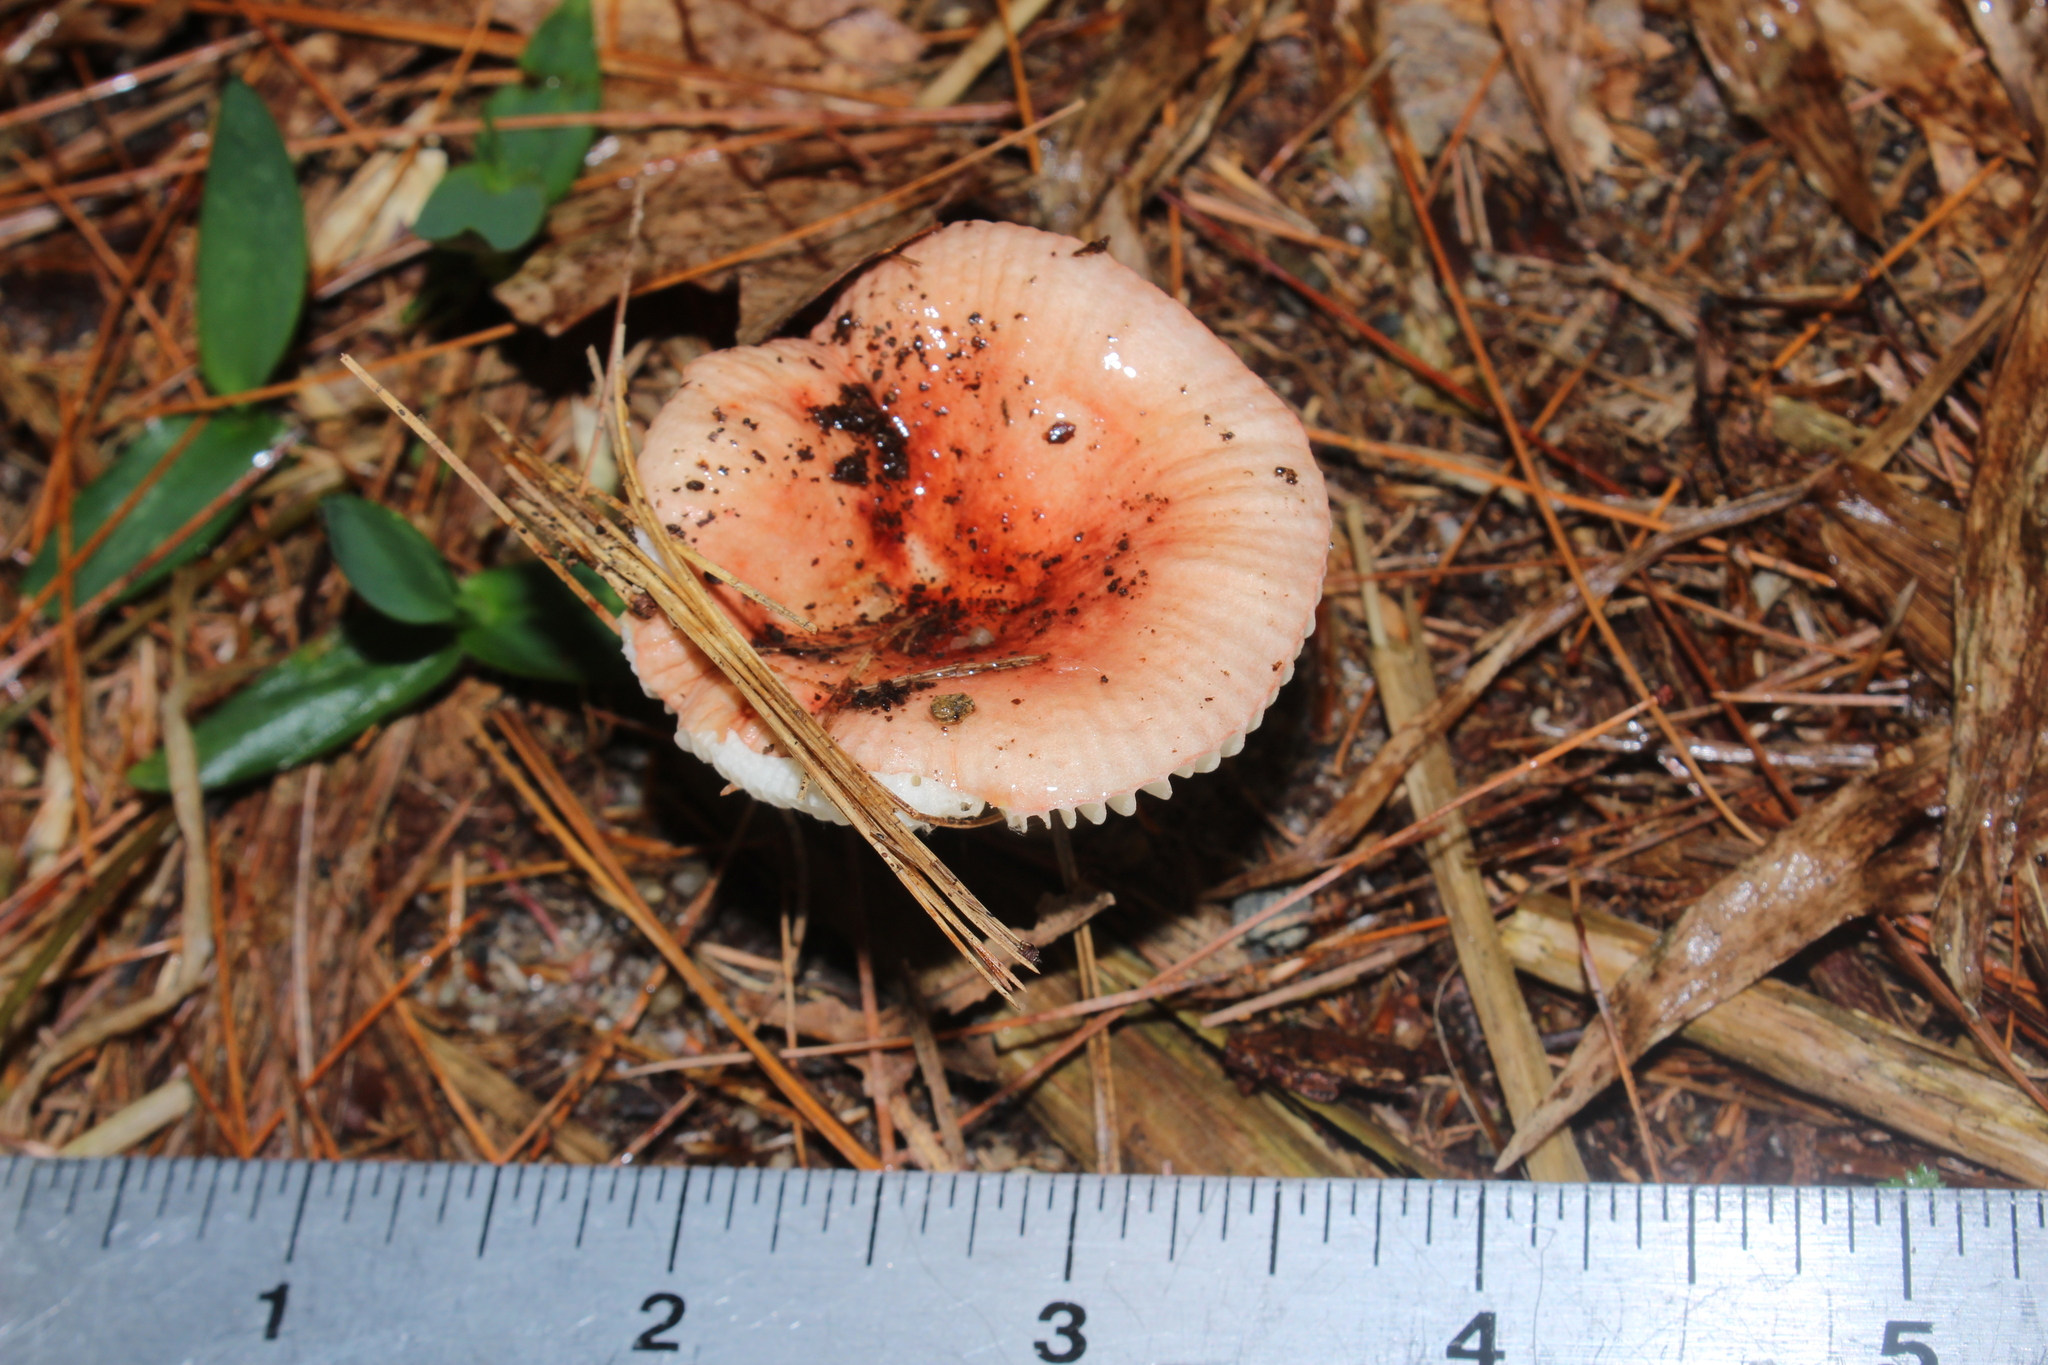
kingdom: Fungi
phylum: Basidiomycota
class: Agaricomycetes
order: Russulales
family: Russulaceae
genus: Russula
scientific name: Russula
